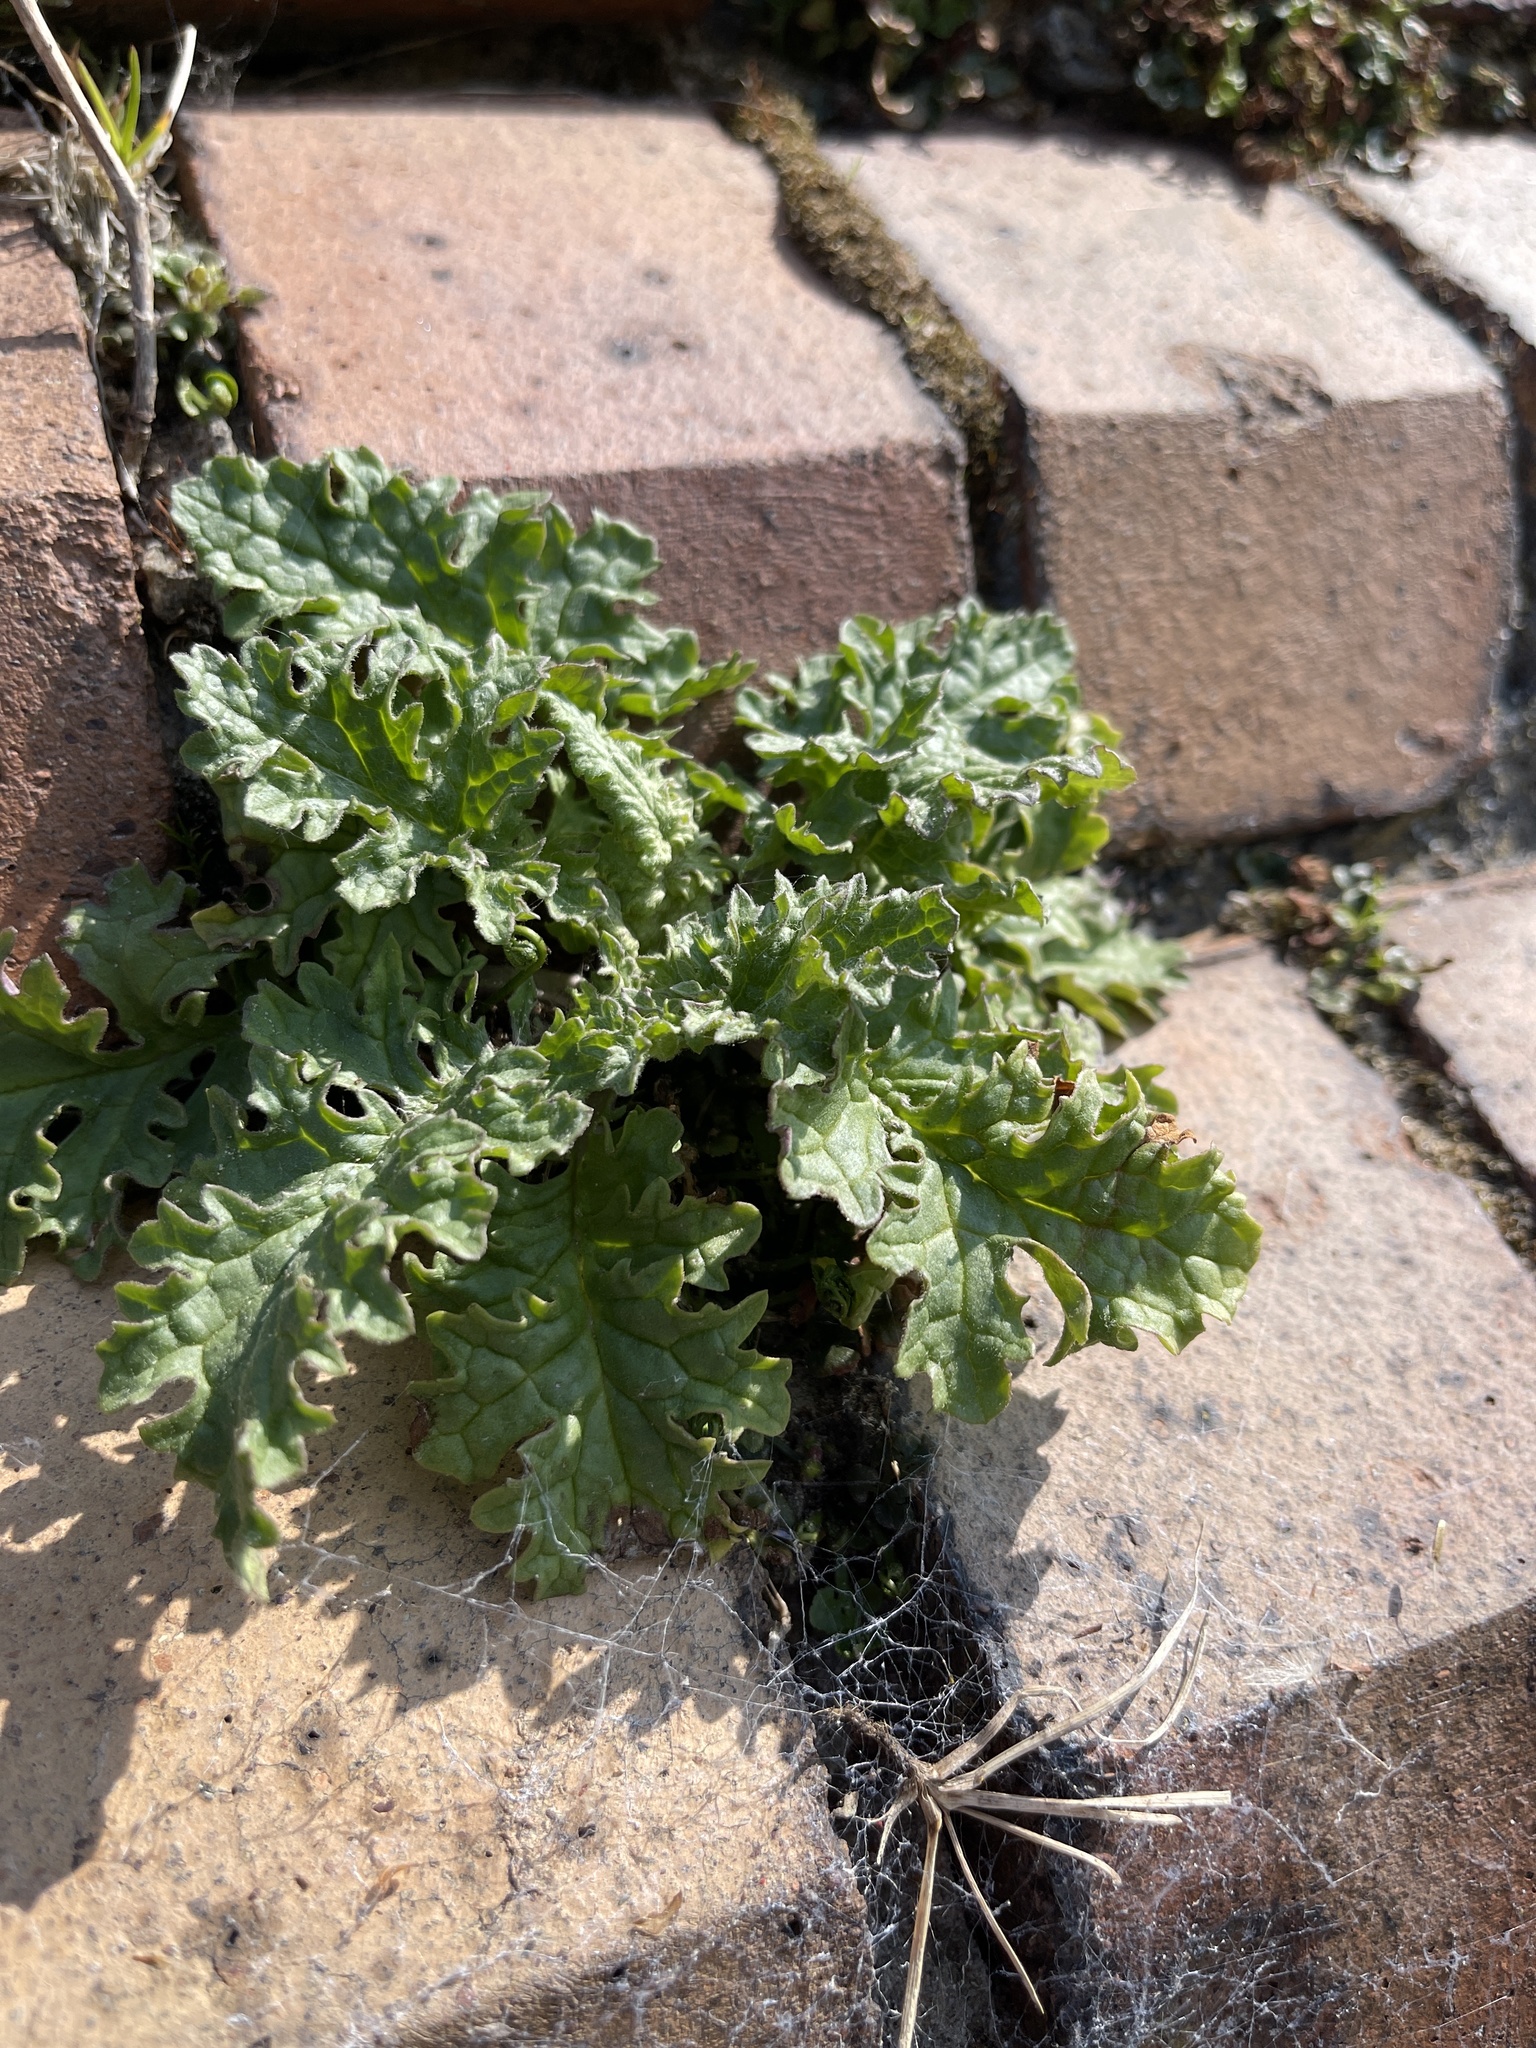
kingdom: Plantae
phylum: Tracheophyta
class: Magnoliopsida
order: Asterales
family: Asteraceae
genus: Jacobaea
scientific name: Jacobaea vulgaris
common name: Stinking willie
